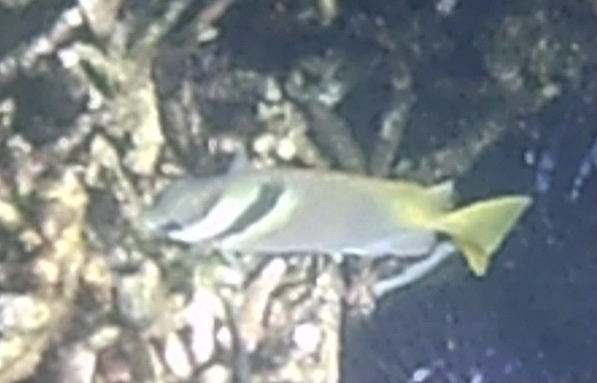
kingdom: Animalia
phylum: Chordata
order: Perciformes
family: Siganidae
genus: Siganus
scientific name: Siganus virgatus
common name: Barhead spinefoot
